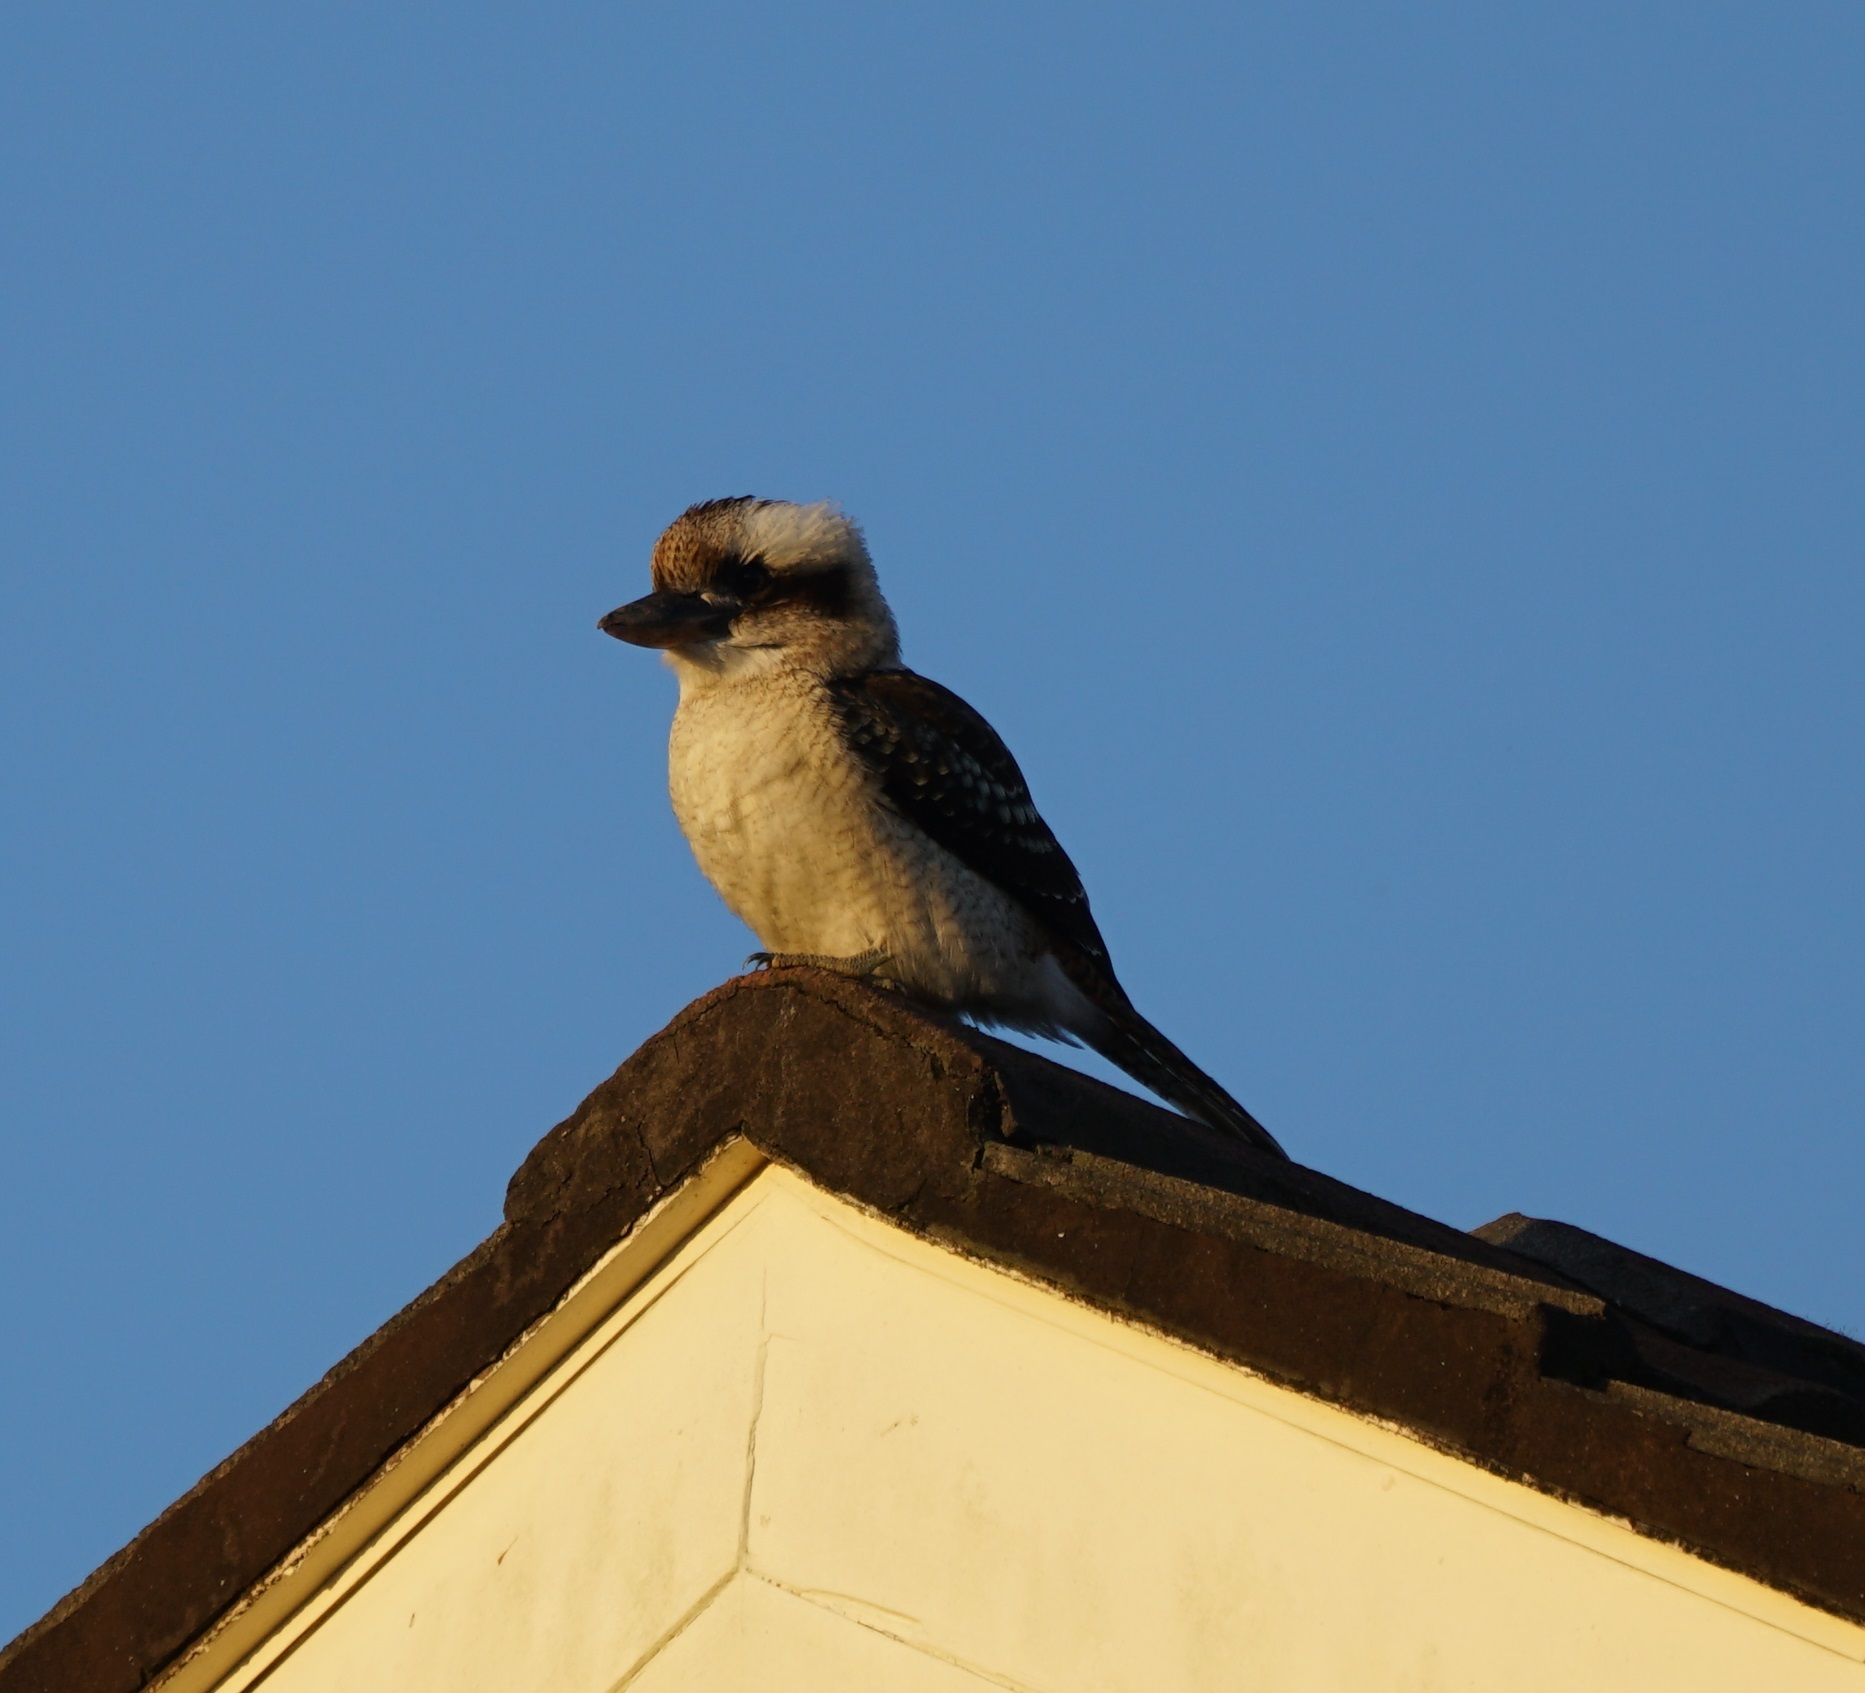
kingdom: Animalia
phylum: Chordata
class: Aves
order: Coraciiformes
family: Alcedinidae
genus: Dacelo
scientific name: Dacelo novaeguineae
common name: Laughing kookaburra
